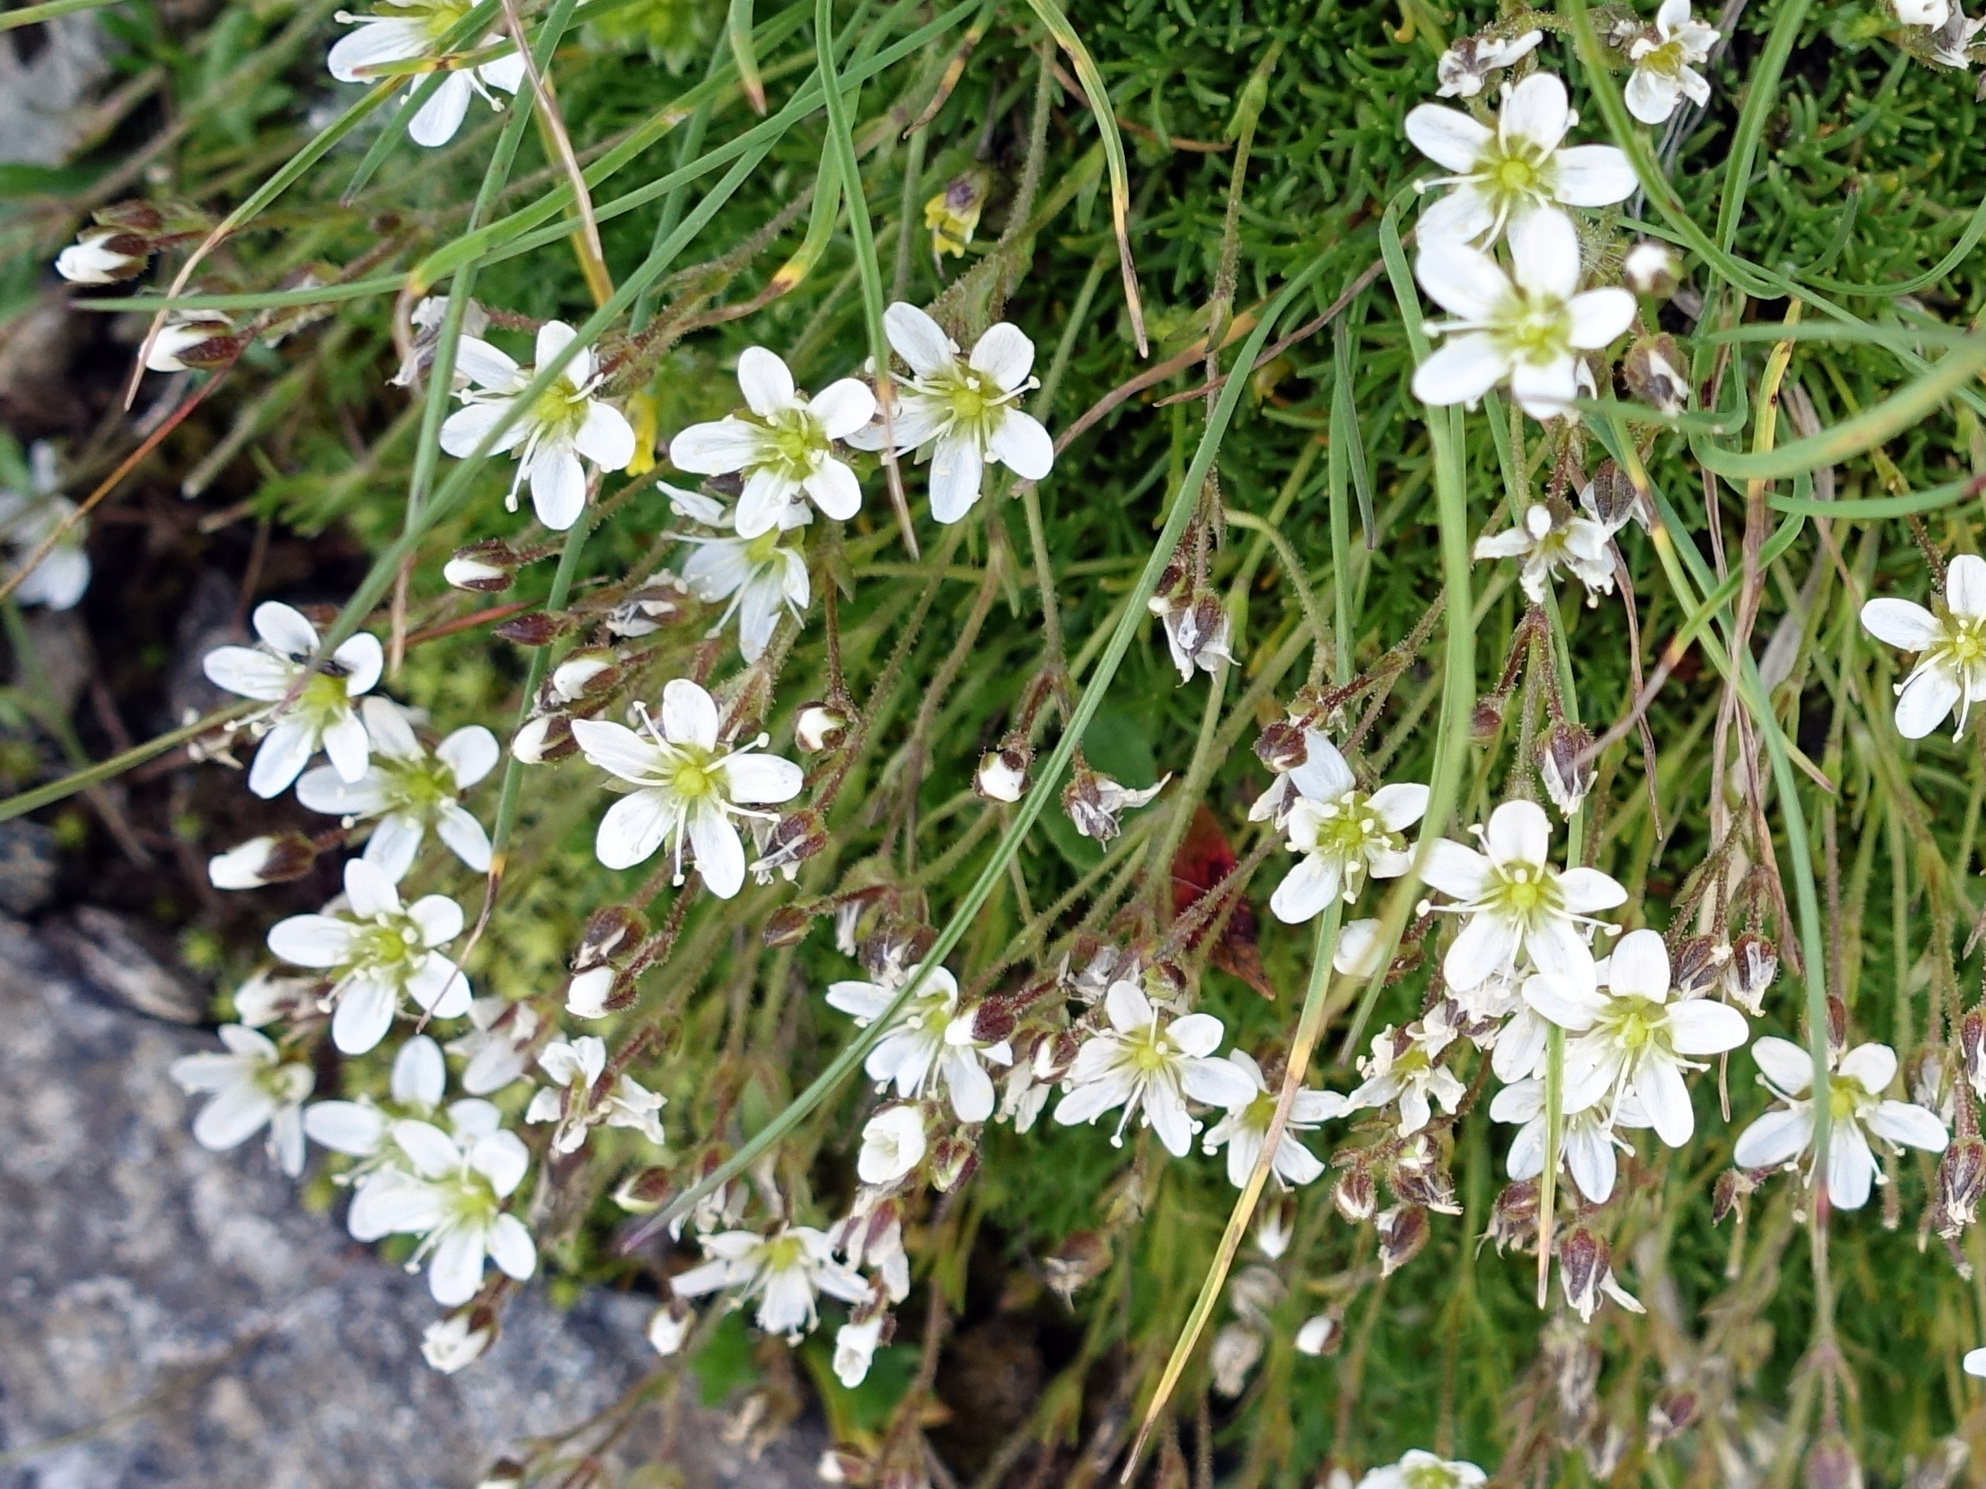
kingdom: Plantae
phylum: Tracheophyta
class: Magnoliopsida
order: Caryophyllales
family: Caryophyllaceae
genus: Minuartia
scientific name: Minuartia recurva
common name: Recurved sandwort
